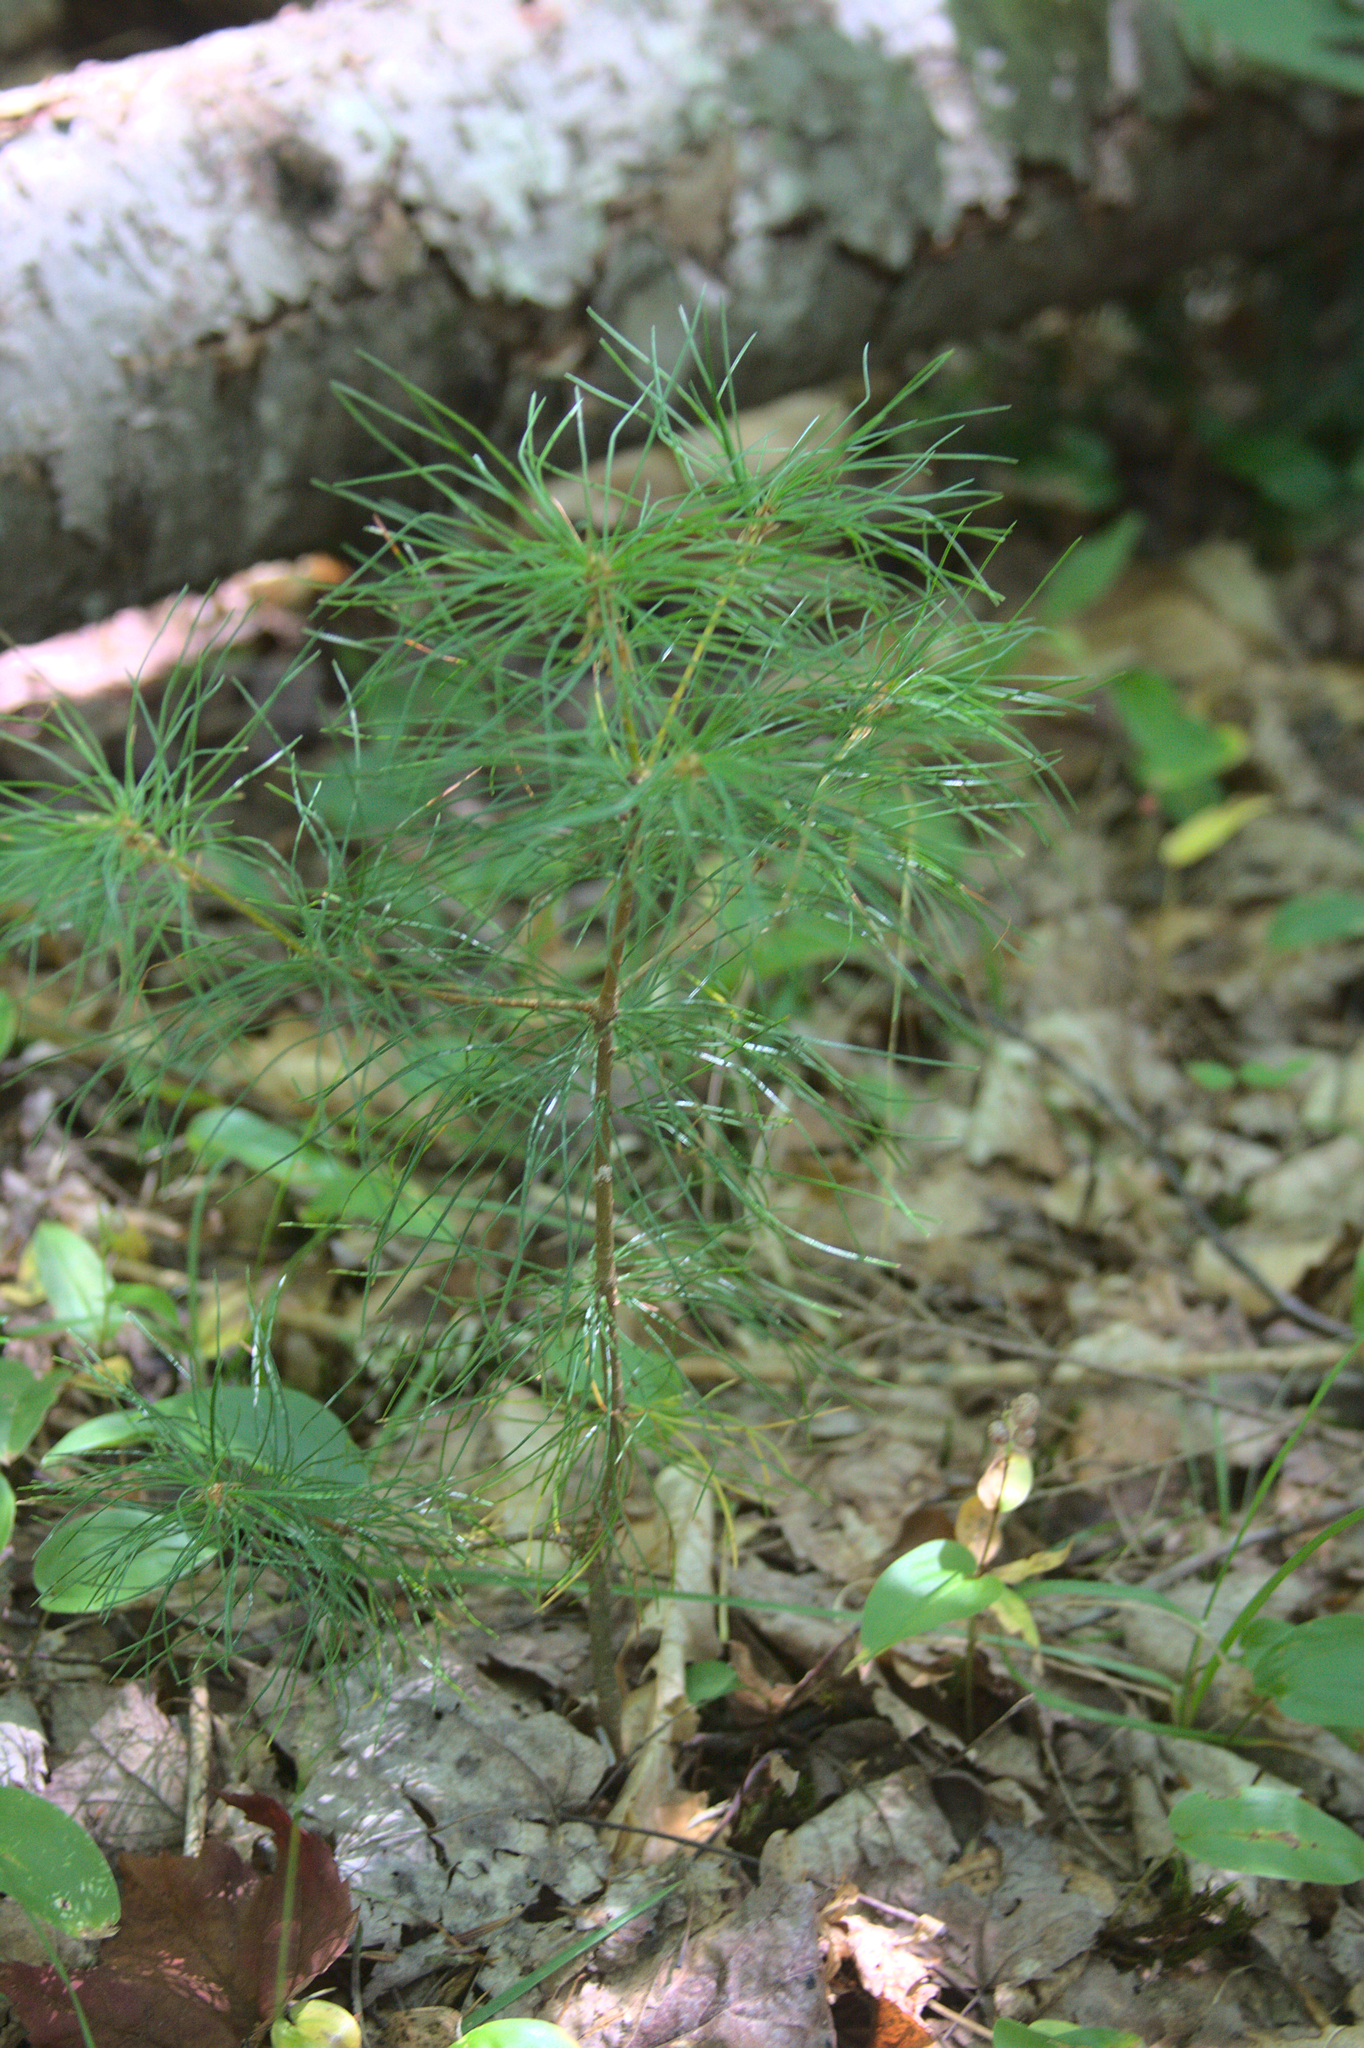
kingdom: Plantae
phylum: Tracheophyta
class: Pinopsida
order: Pinales
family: Pinaceae
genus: Pinus
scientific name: Pinus strobus
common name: Weymouth pine
